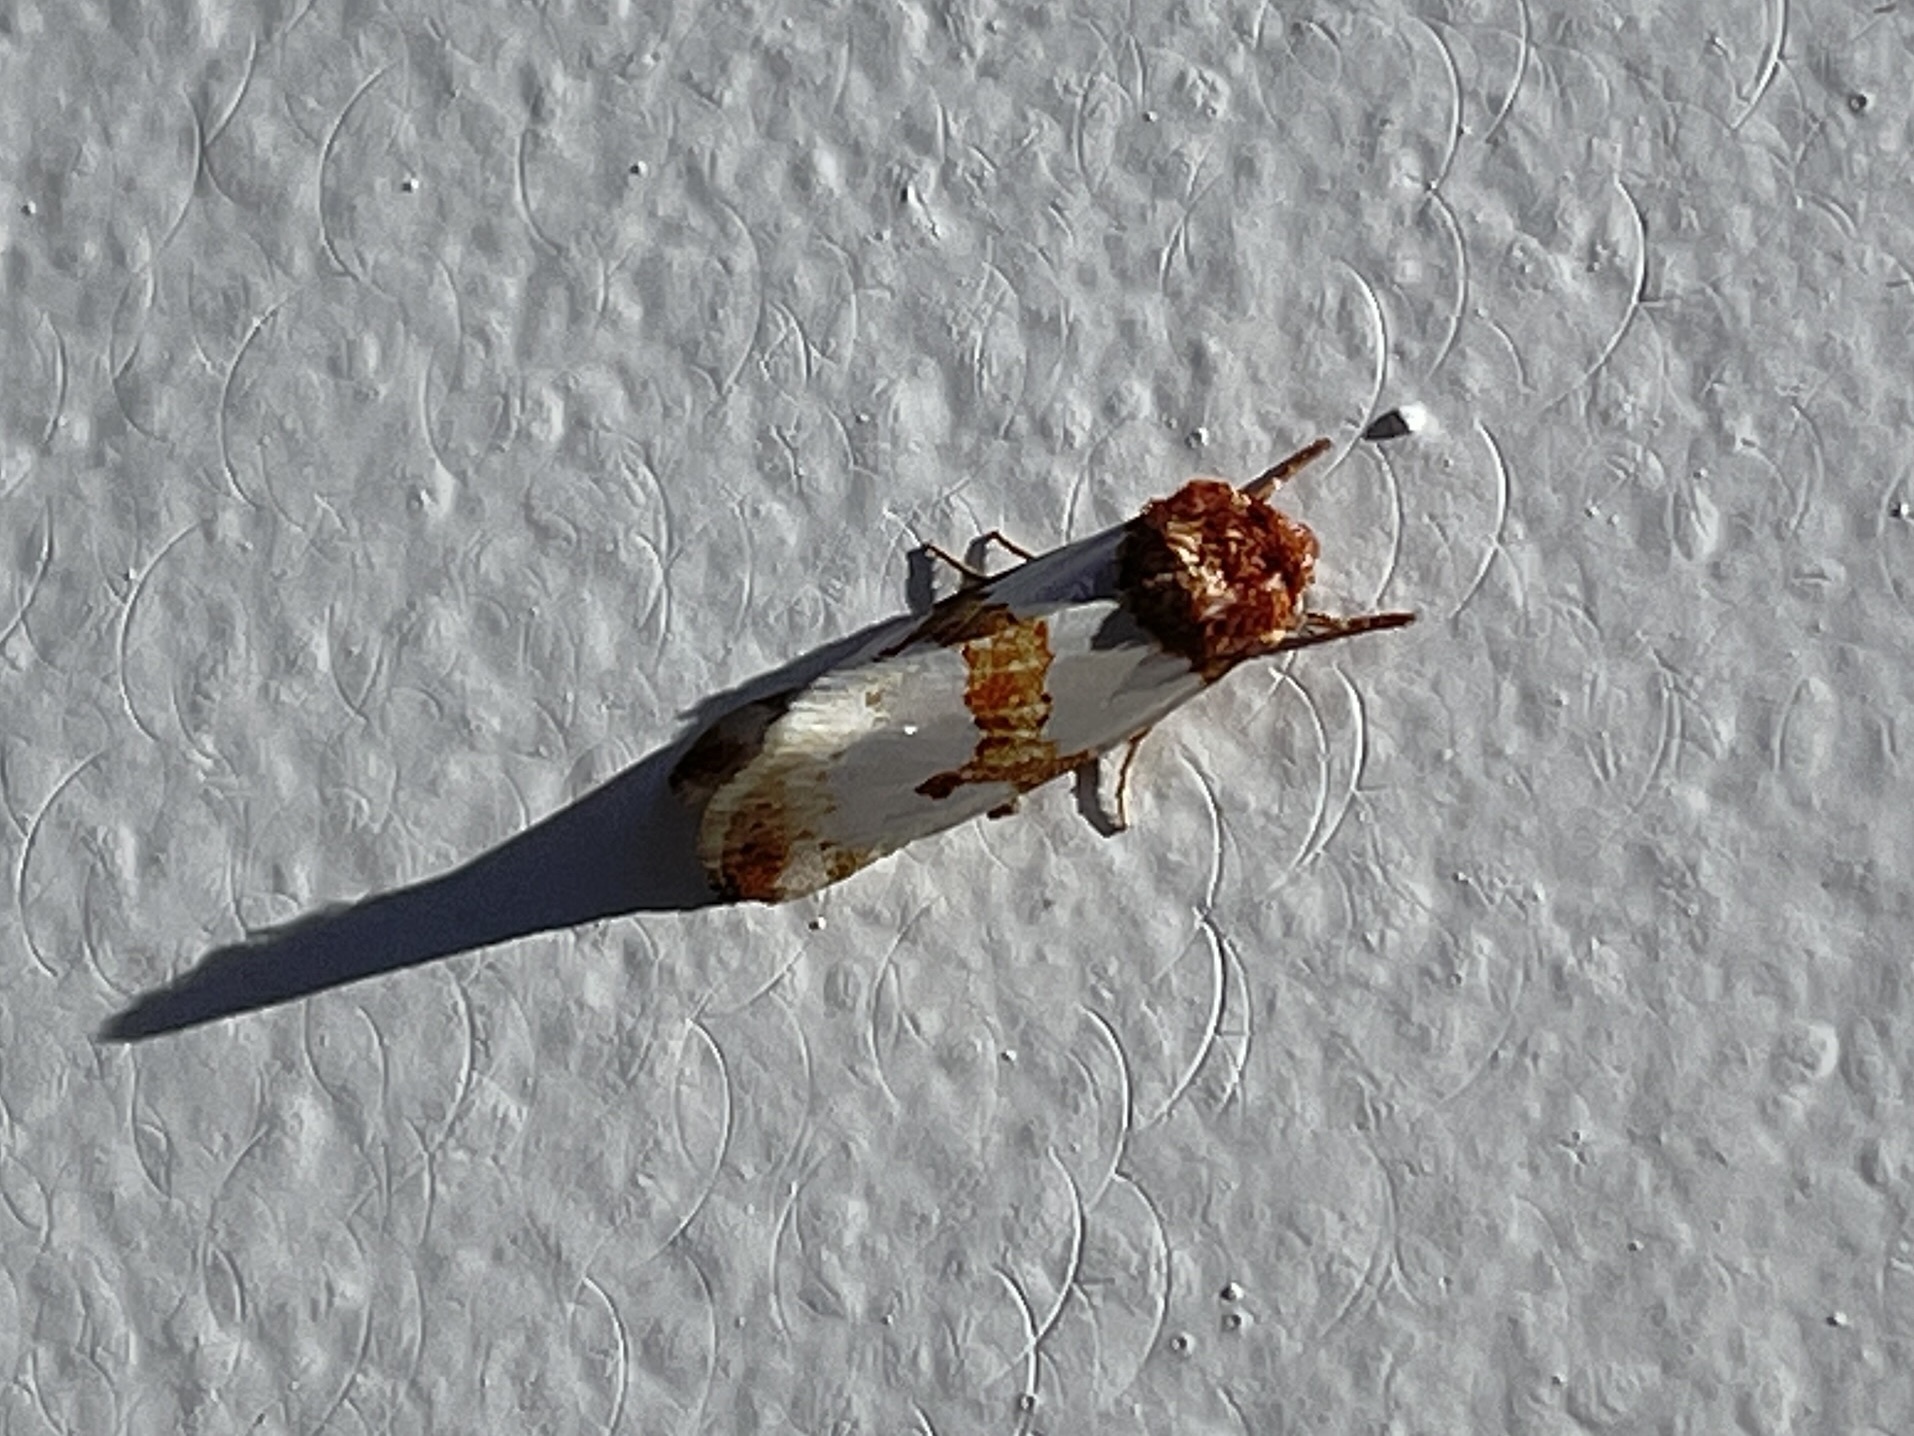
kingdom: Animalia
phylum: Arthropoda
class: Insecta
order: Lepidoptera
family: Noctuidae
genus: Schinia
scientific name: Schinia chrysellus
